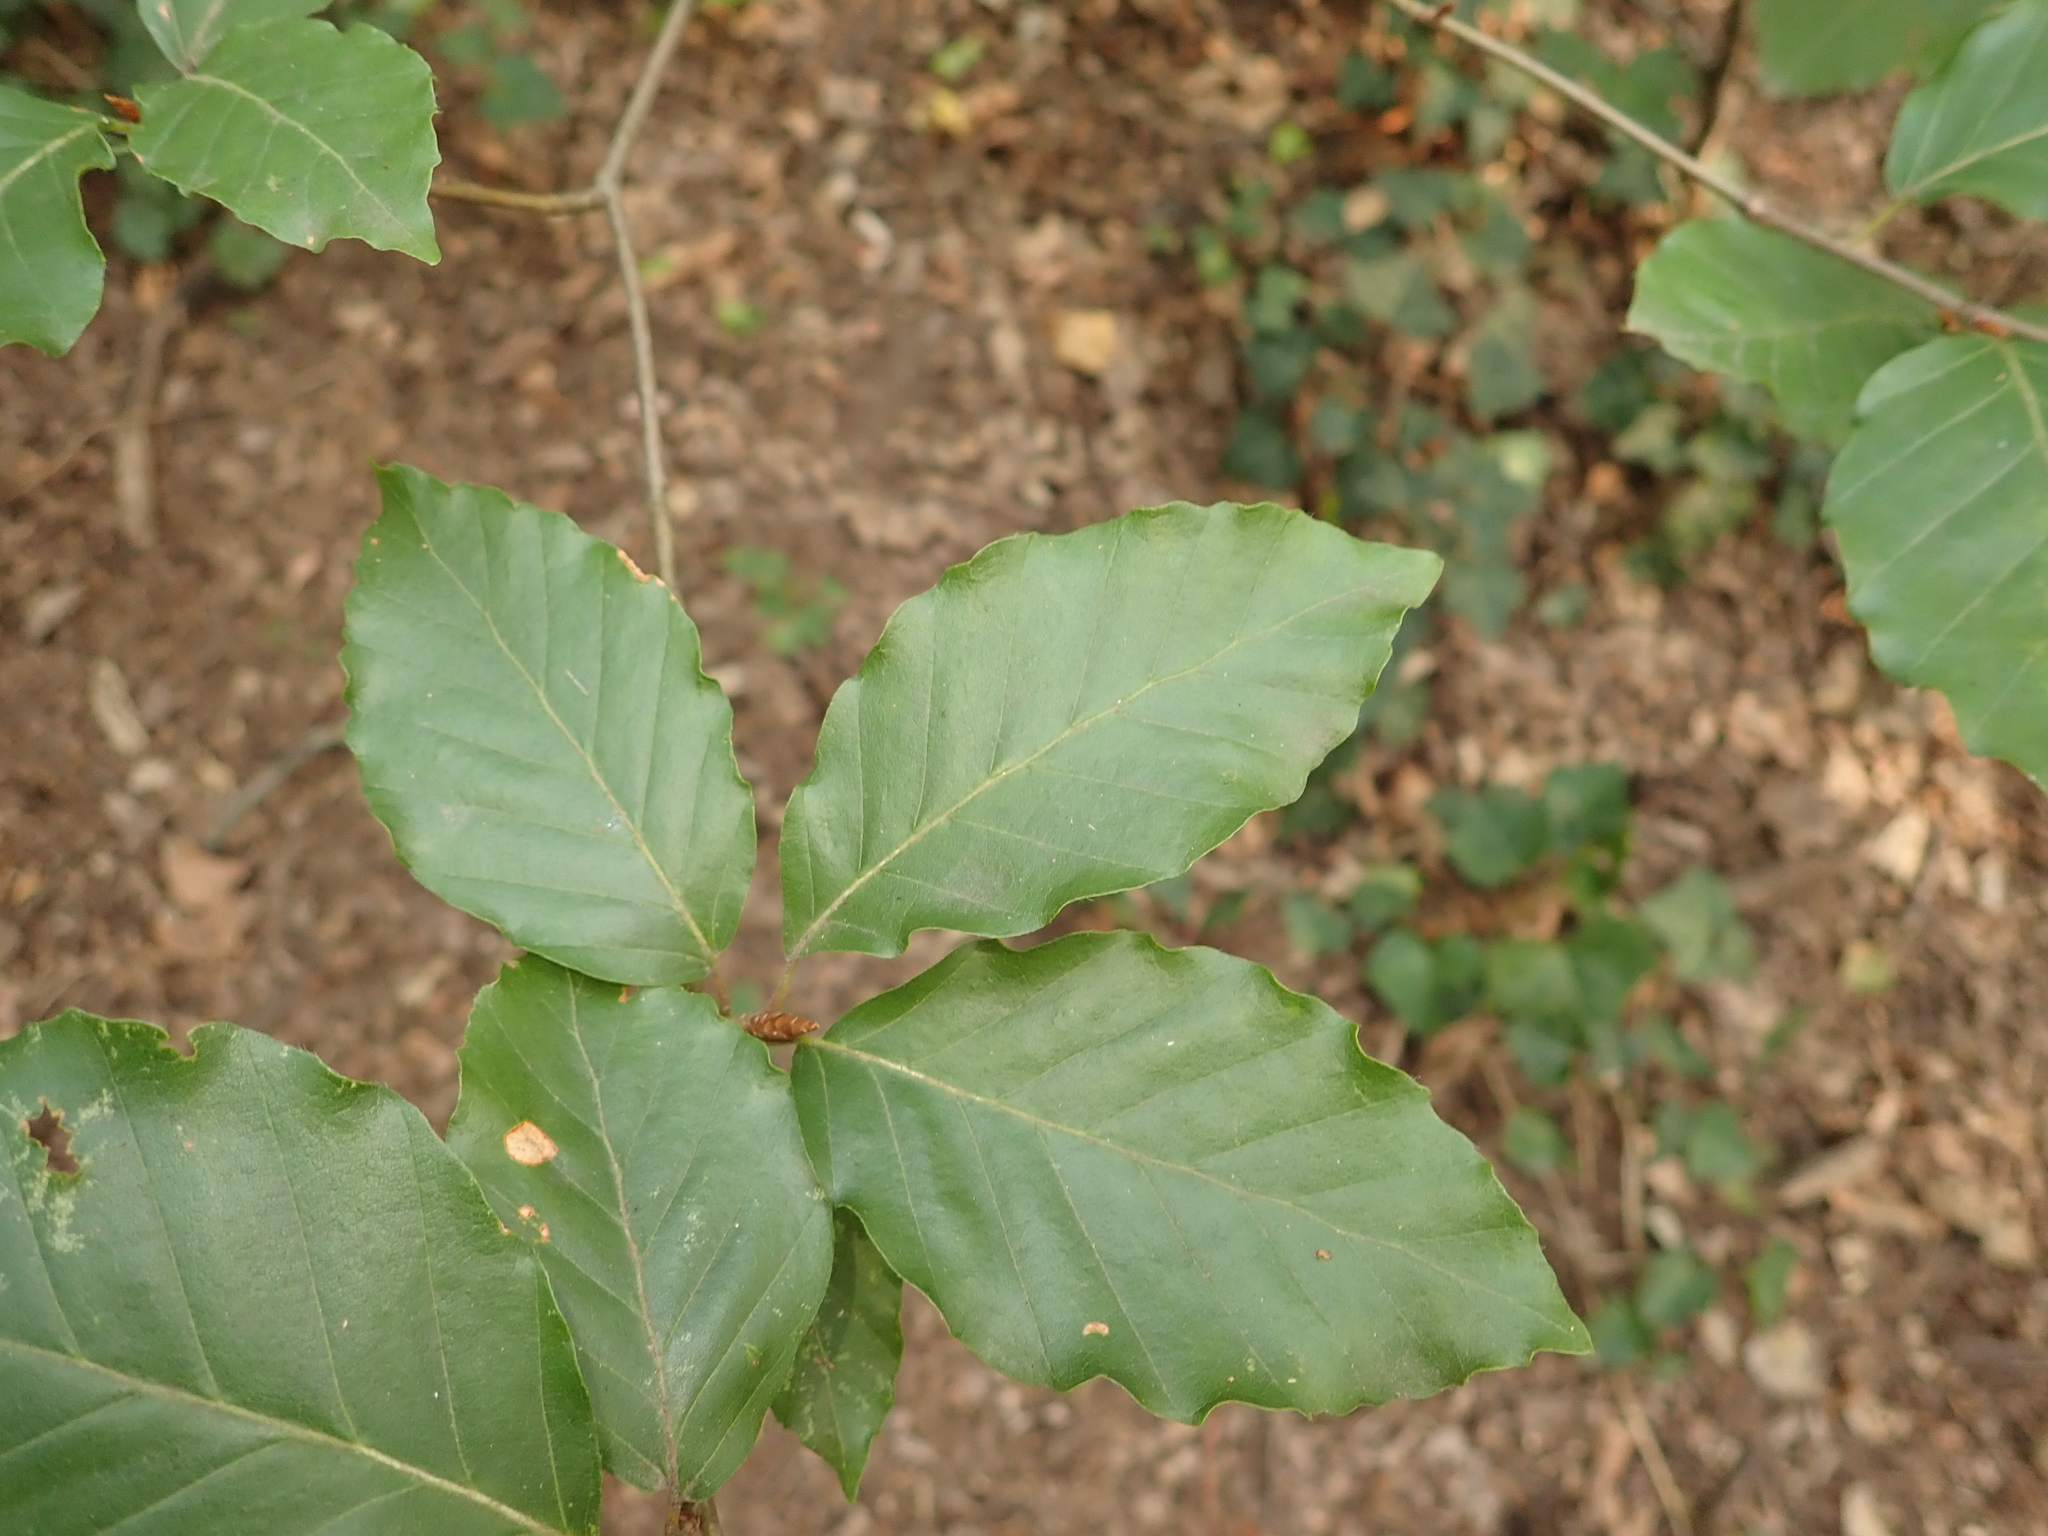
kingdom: Plantae
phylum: Tracheophyta
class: Magnoliopsida
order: Fagales
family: Fagaceae
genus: Fagus
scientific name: Fagus sylvatica
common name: Beech
